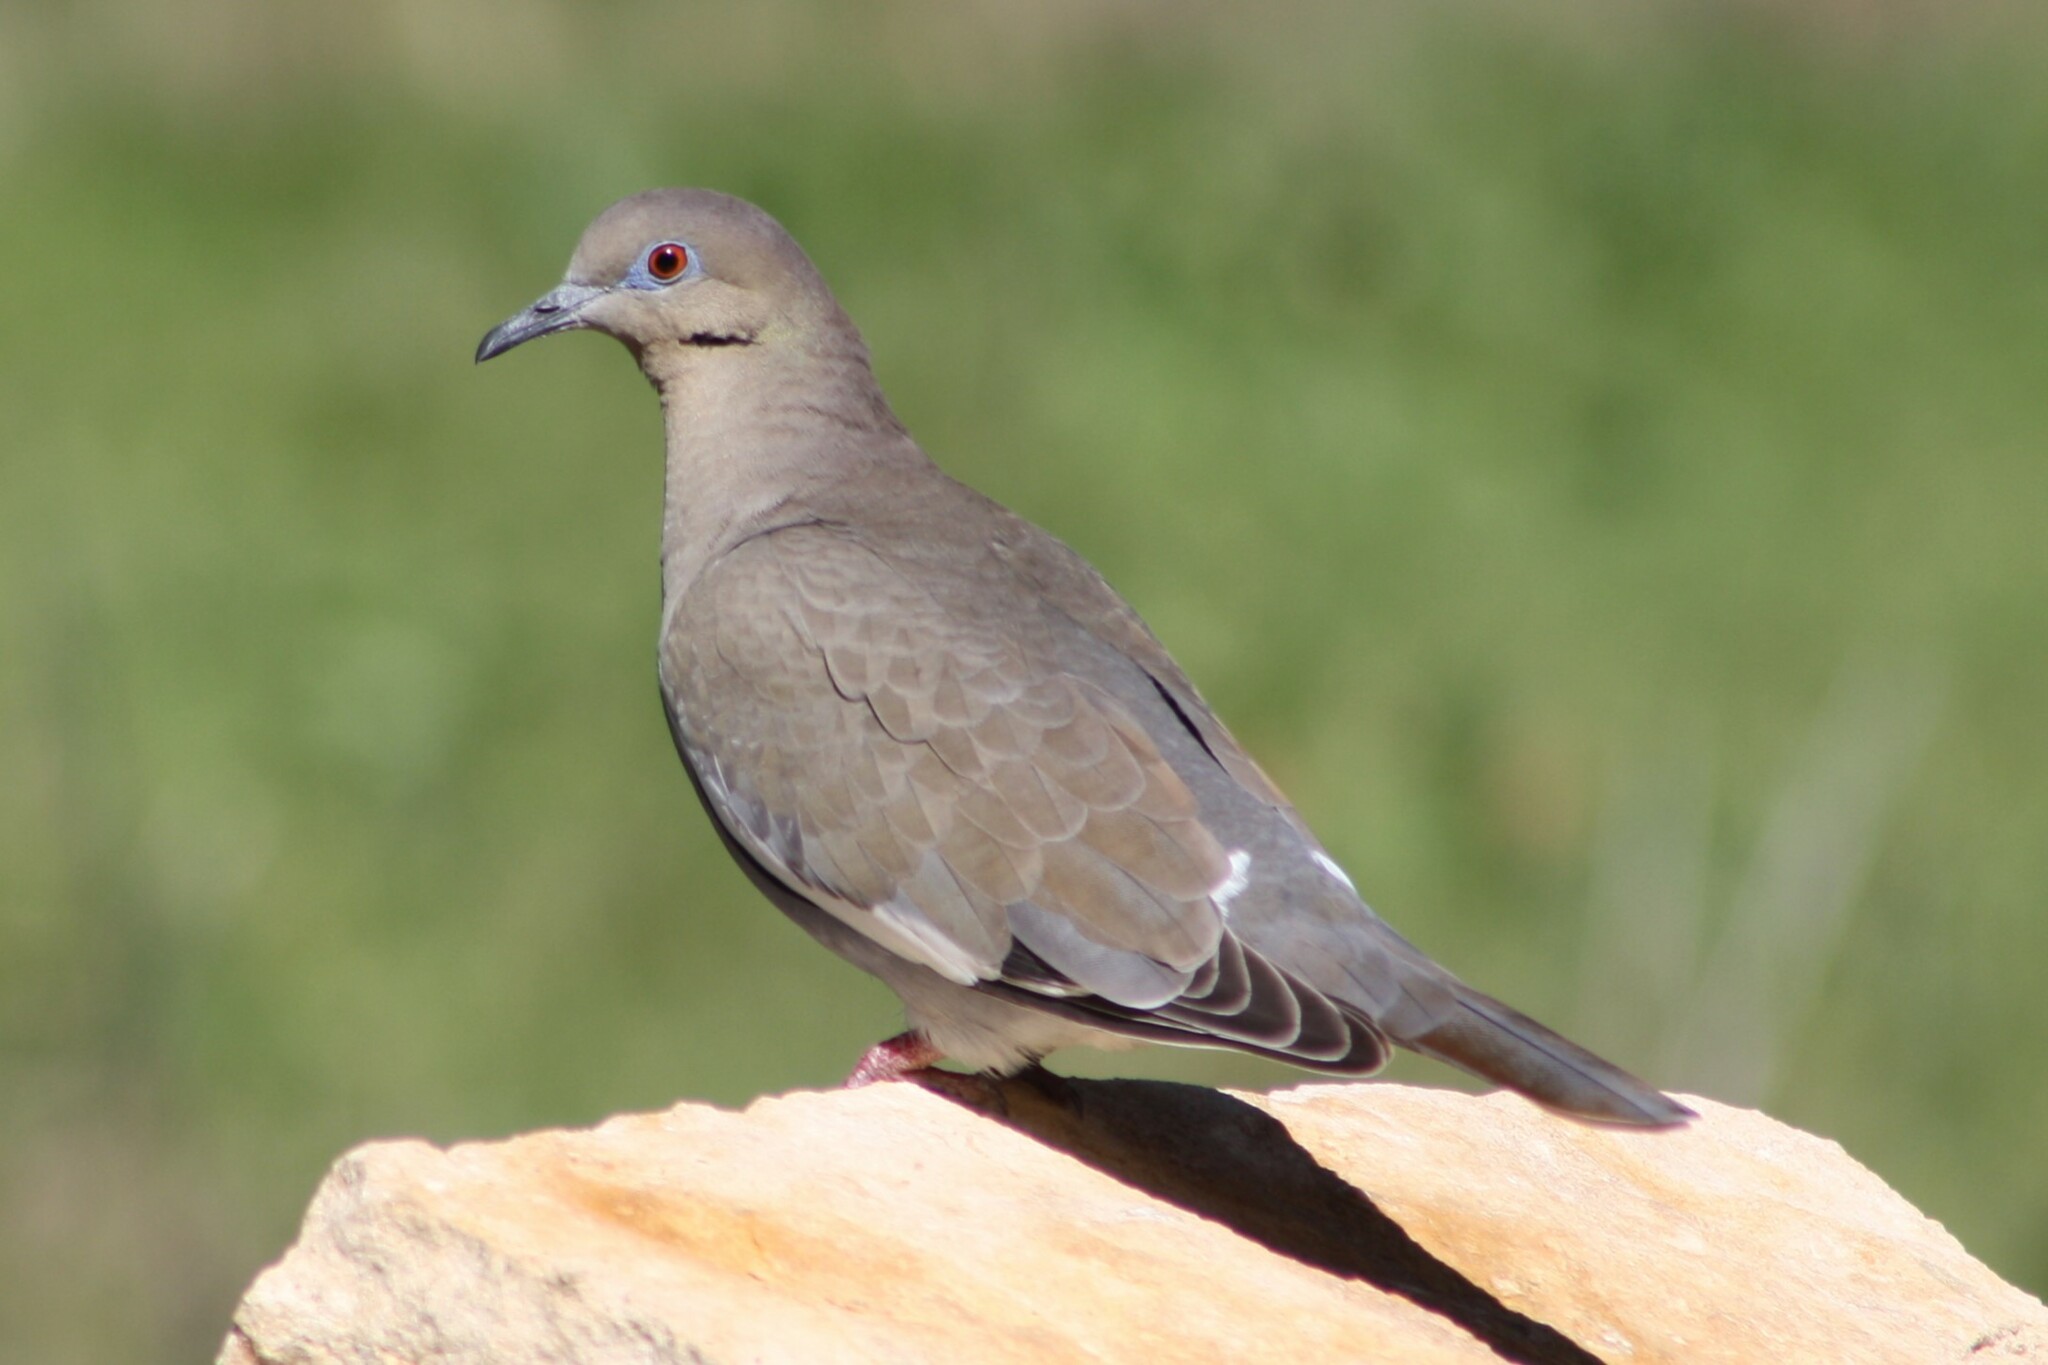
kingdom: Animalia
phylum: Chordata
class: Aves
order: Columbiformes
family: Columbidae
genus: Zenaida
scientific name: Zenaida asiatica
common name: White-winged dove
